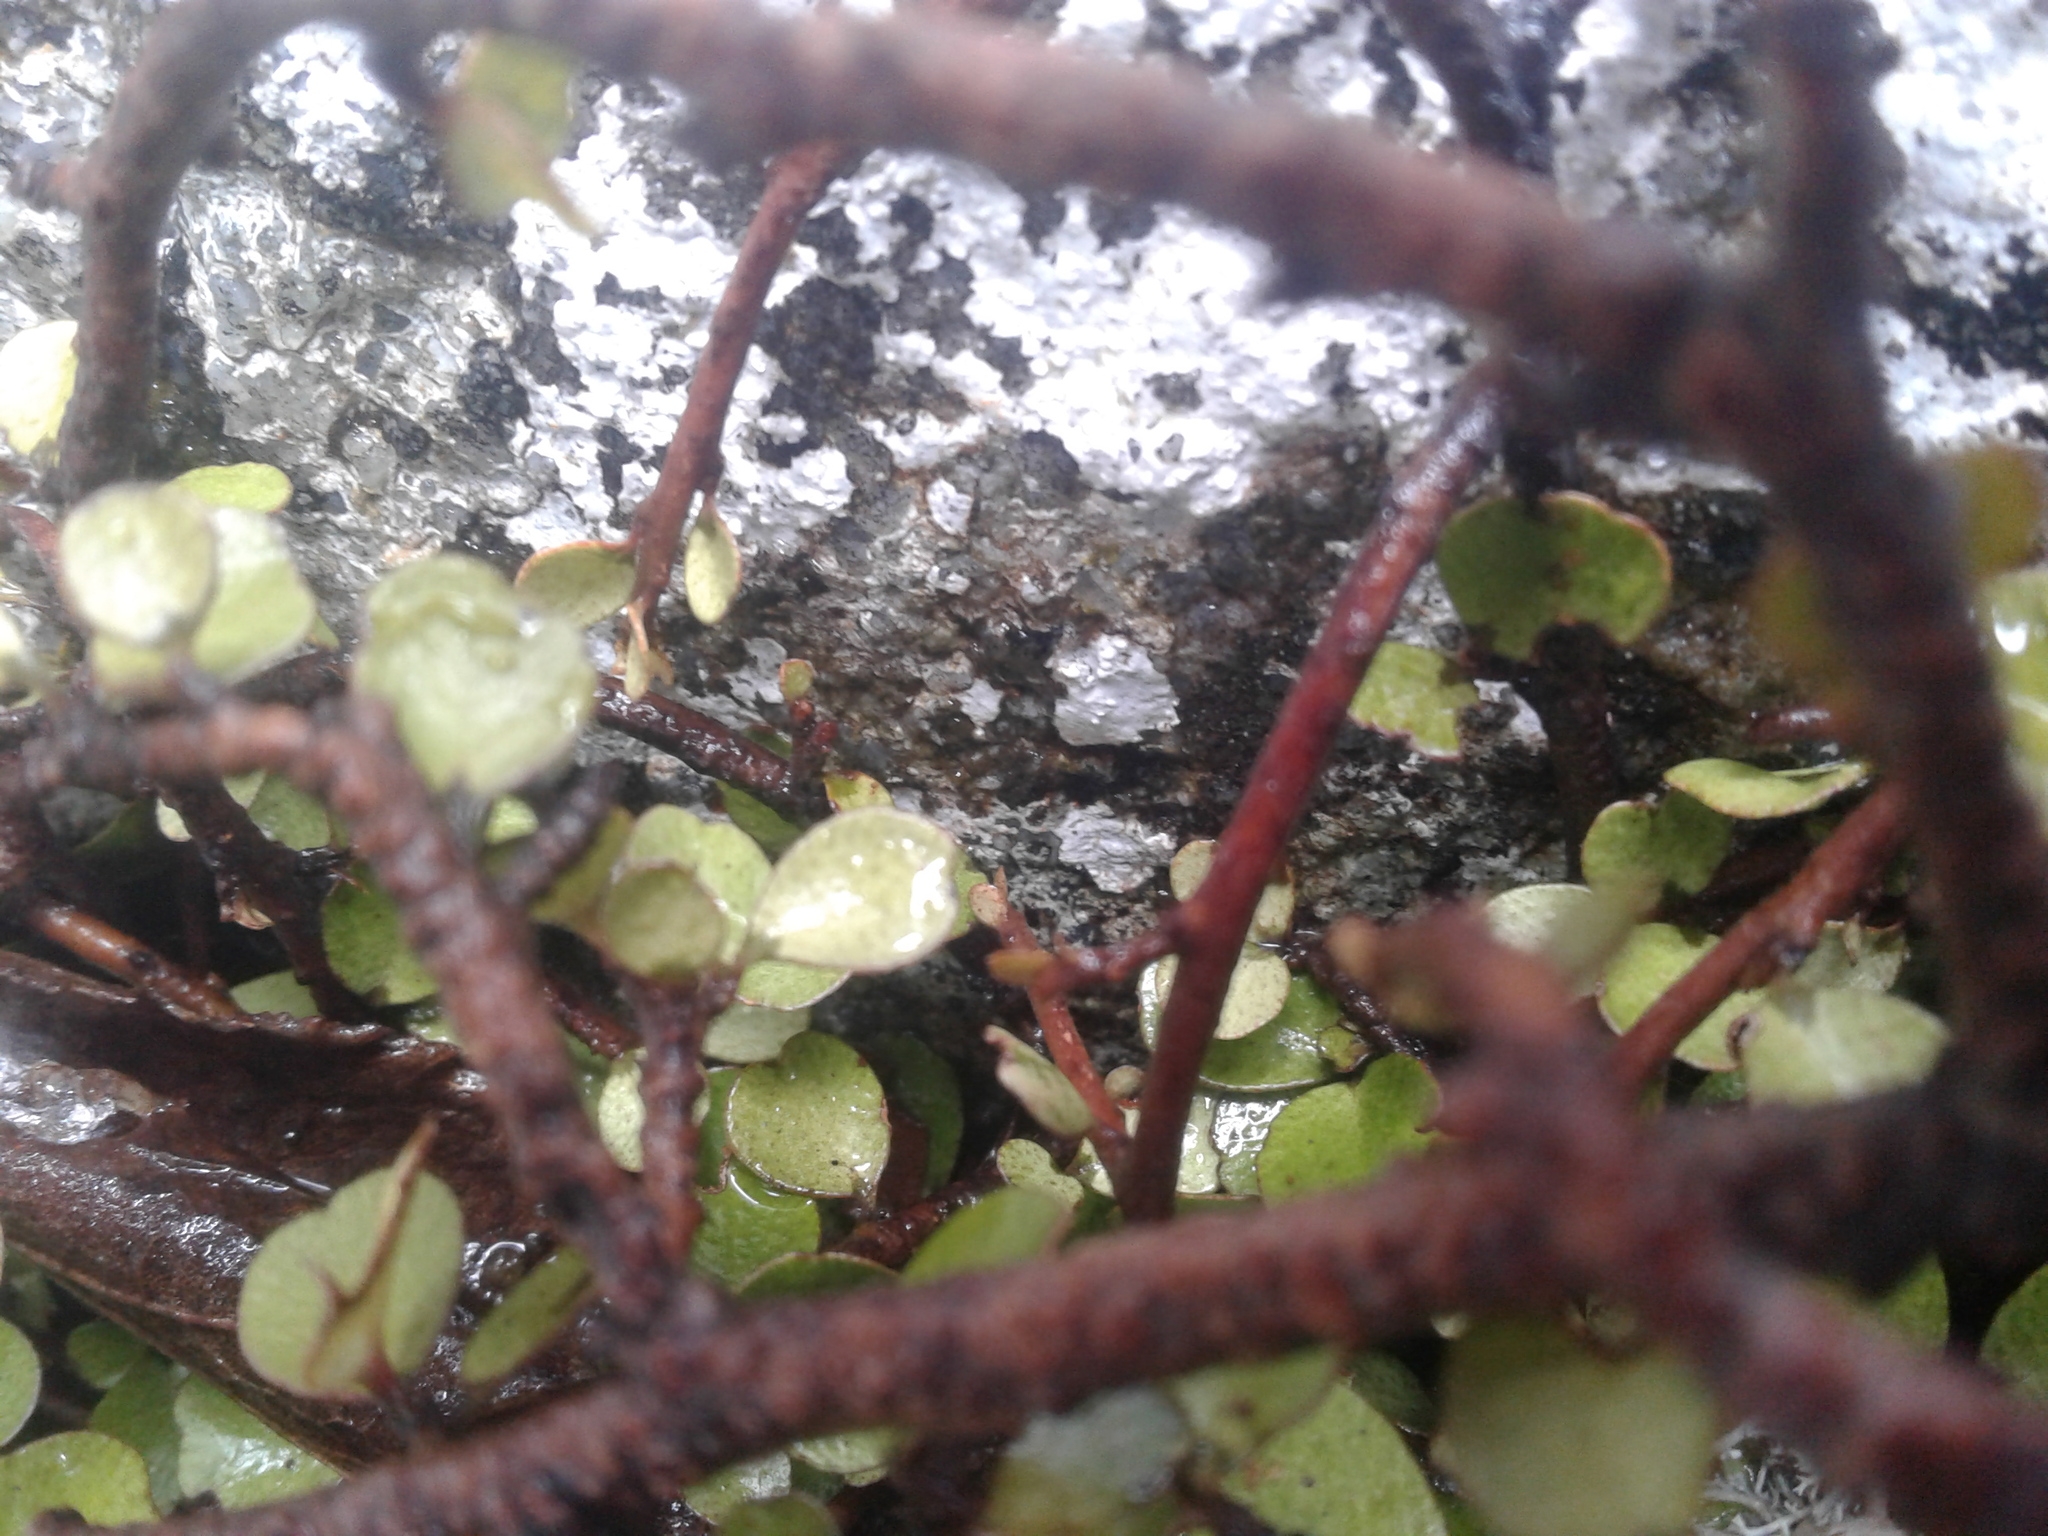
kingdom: Plantae
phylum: Tracheophyta
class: Magnoliopsida
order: Ericales
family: Primulaceae
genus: Myrsine
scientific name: Myrsine divaricata
